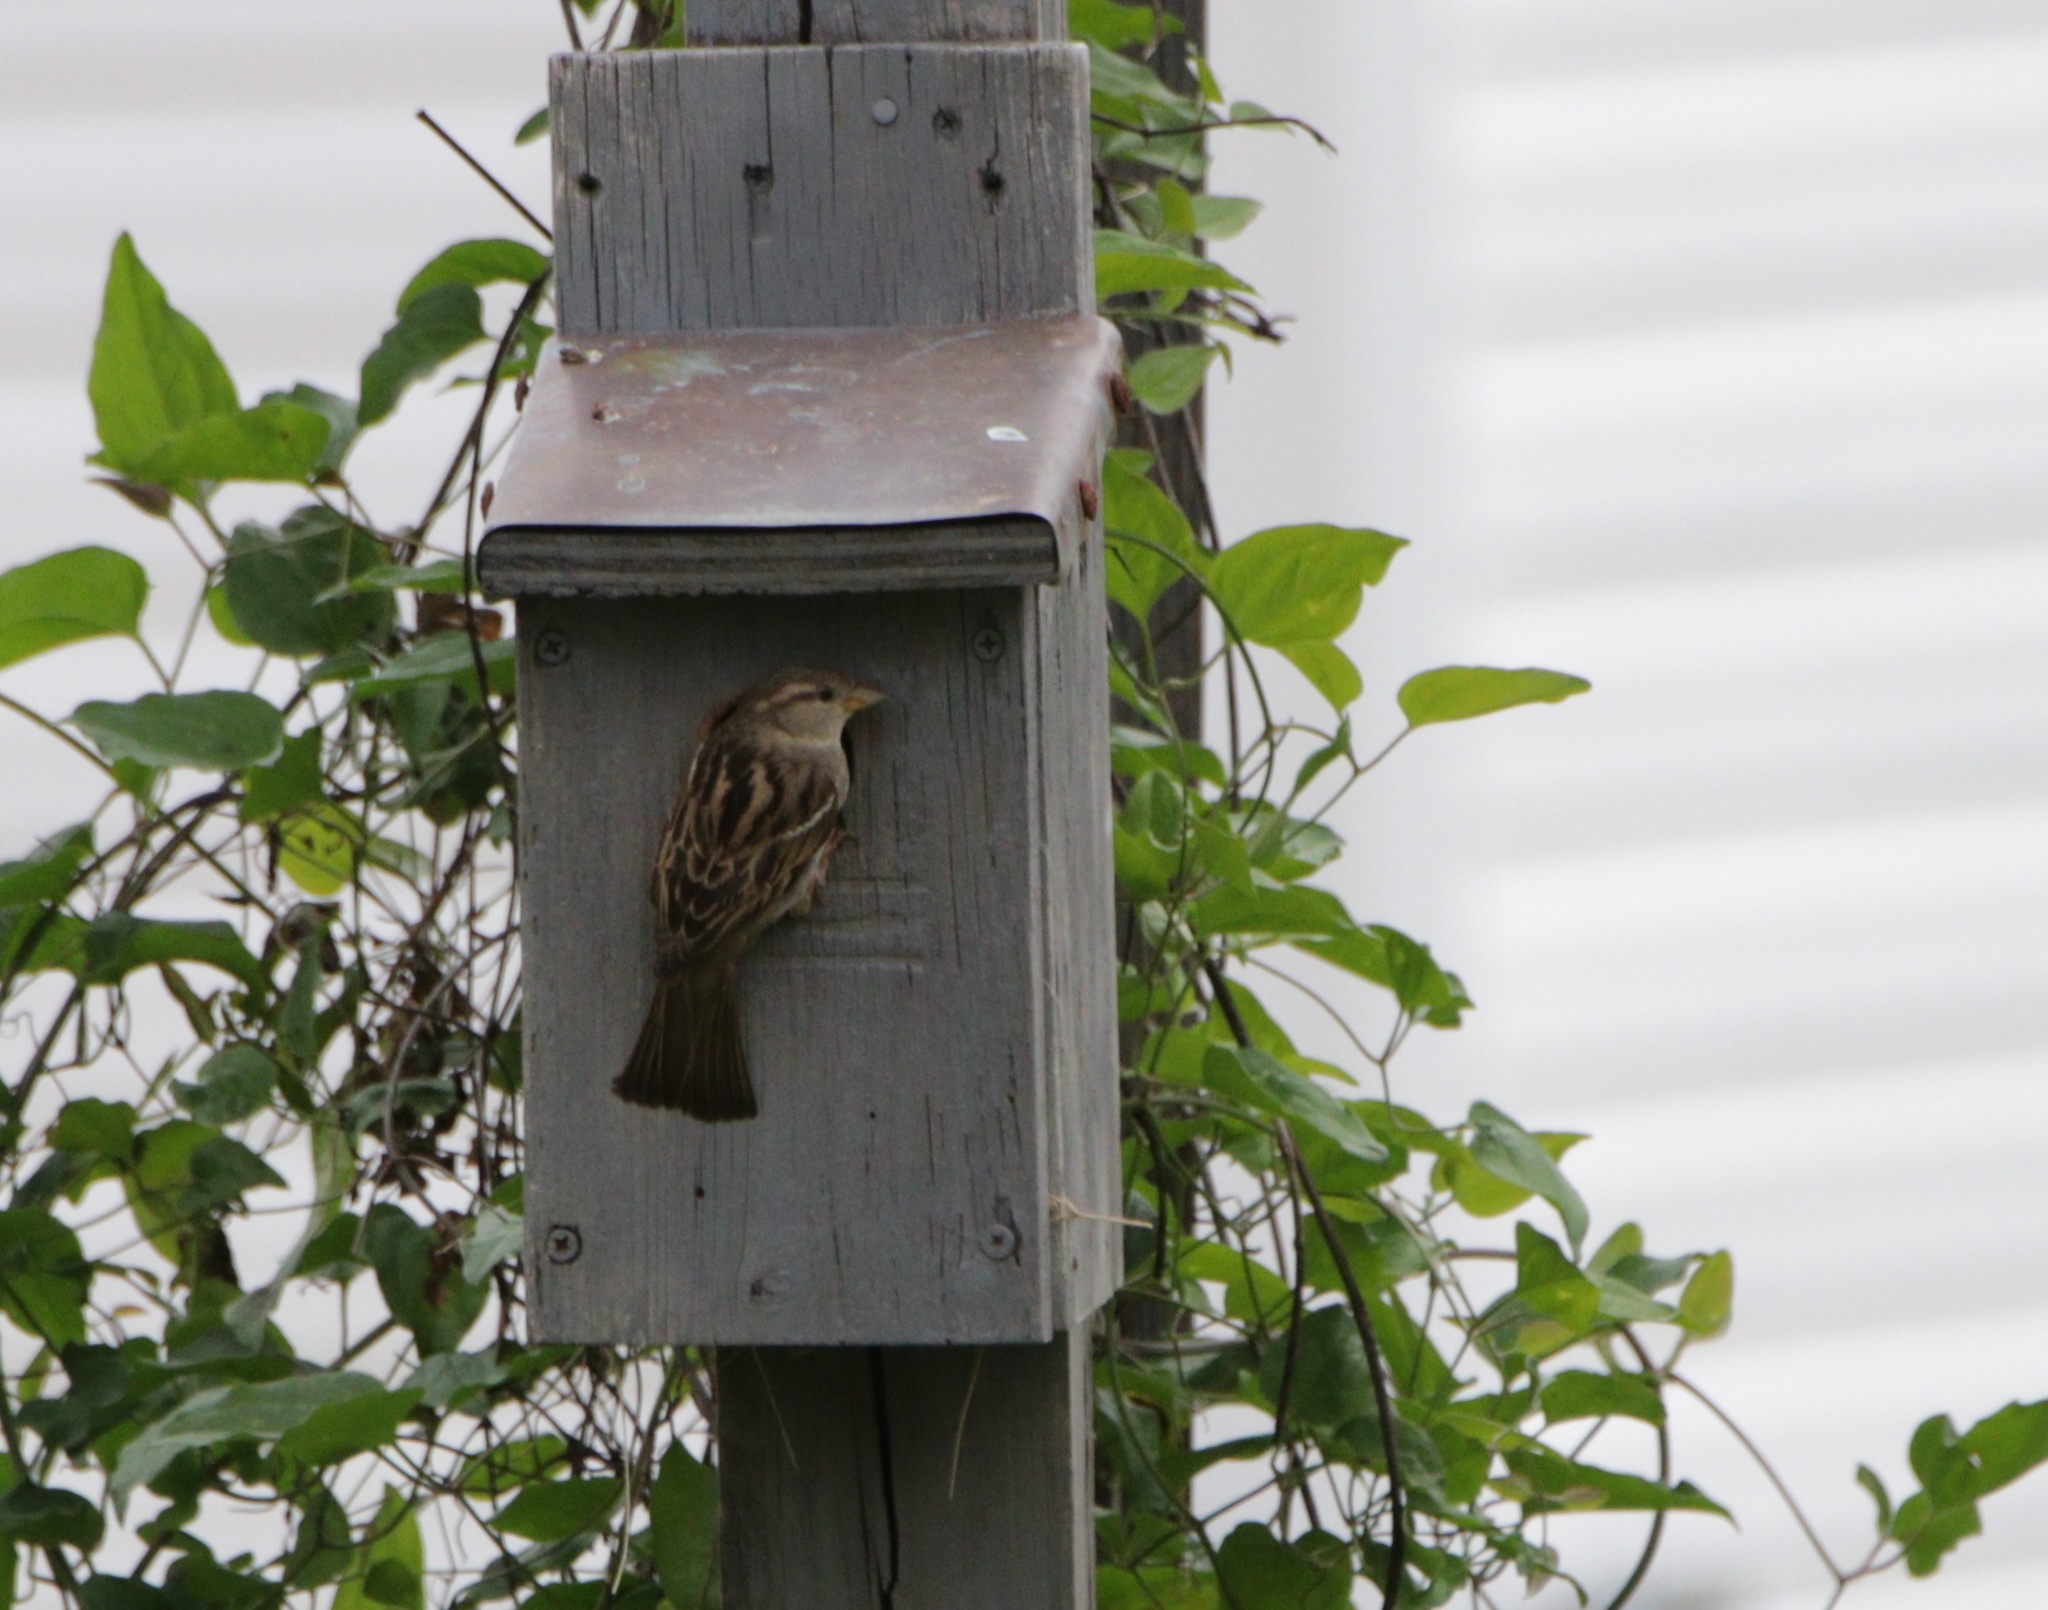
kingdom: Animalia
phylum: Chordata
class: Aves
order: Passeriformes
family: Passeridae
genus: Passer
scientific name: Passer domesticus
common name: House sparrow
